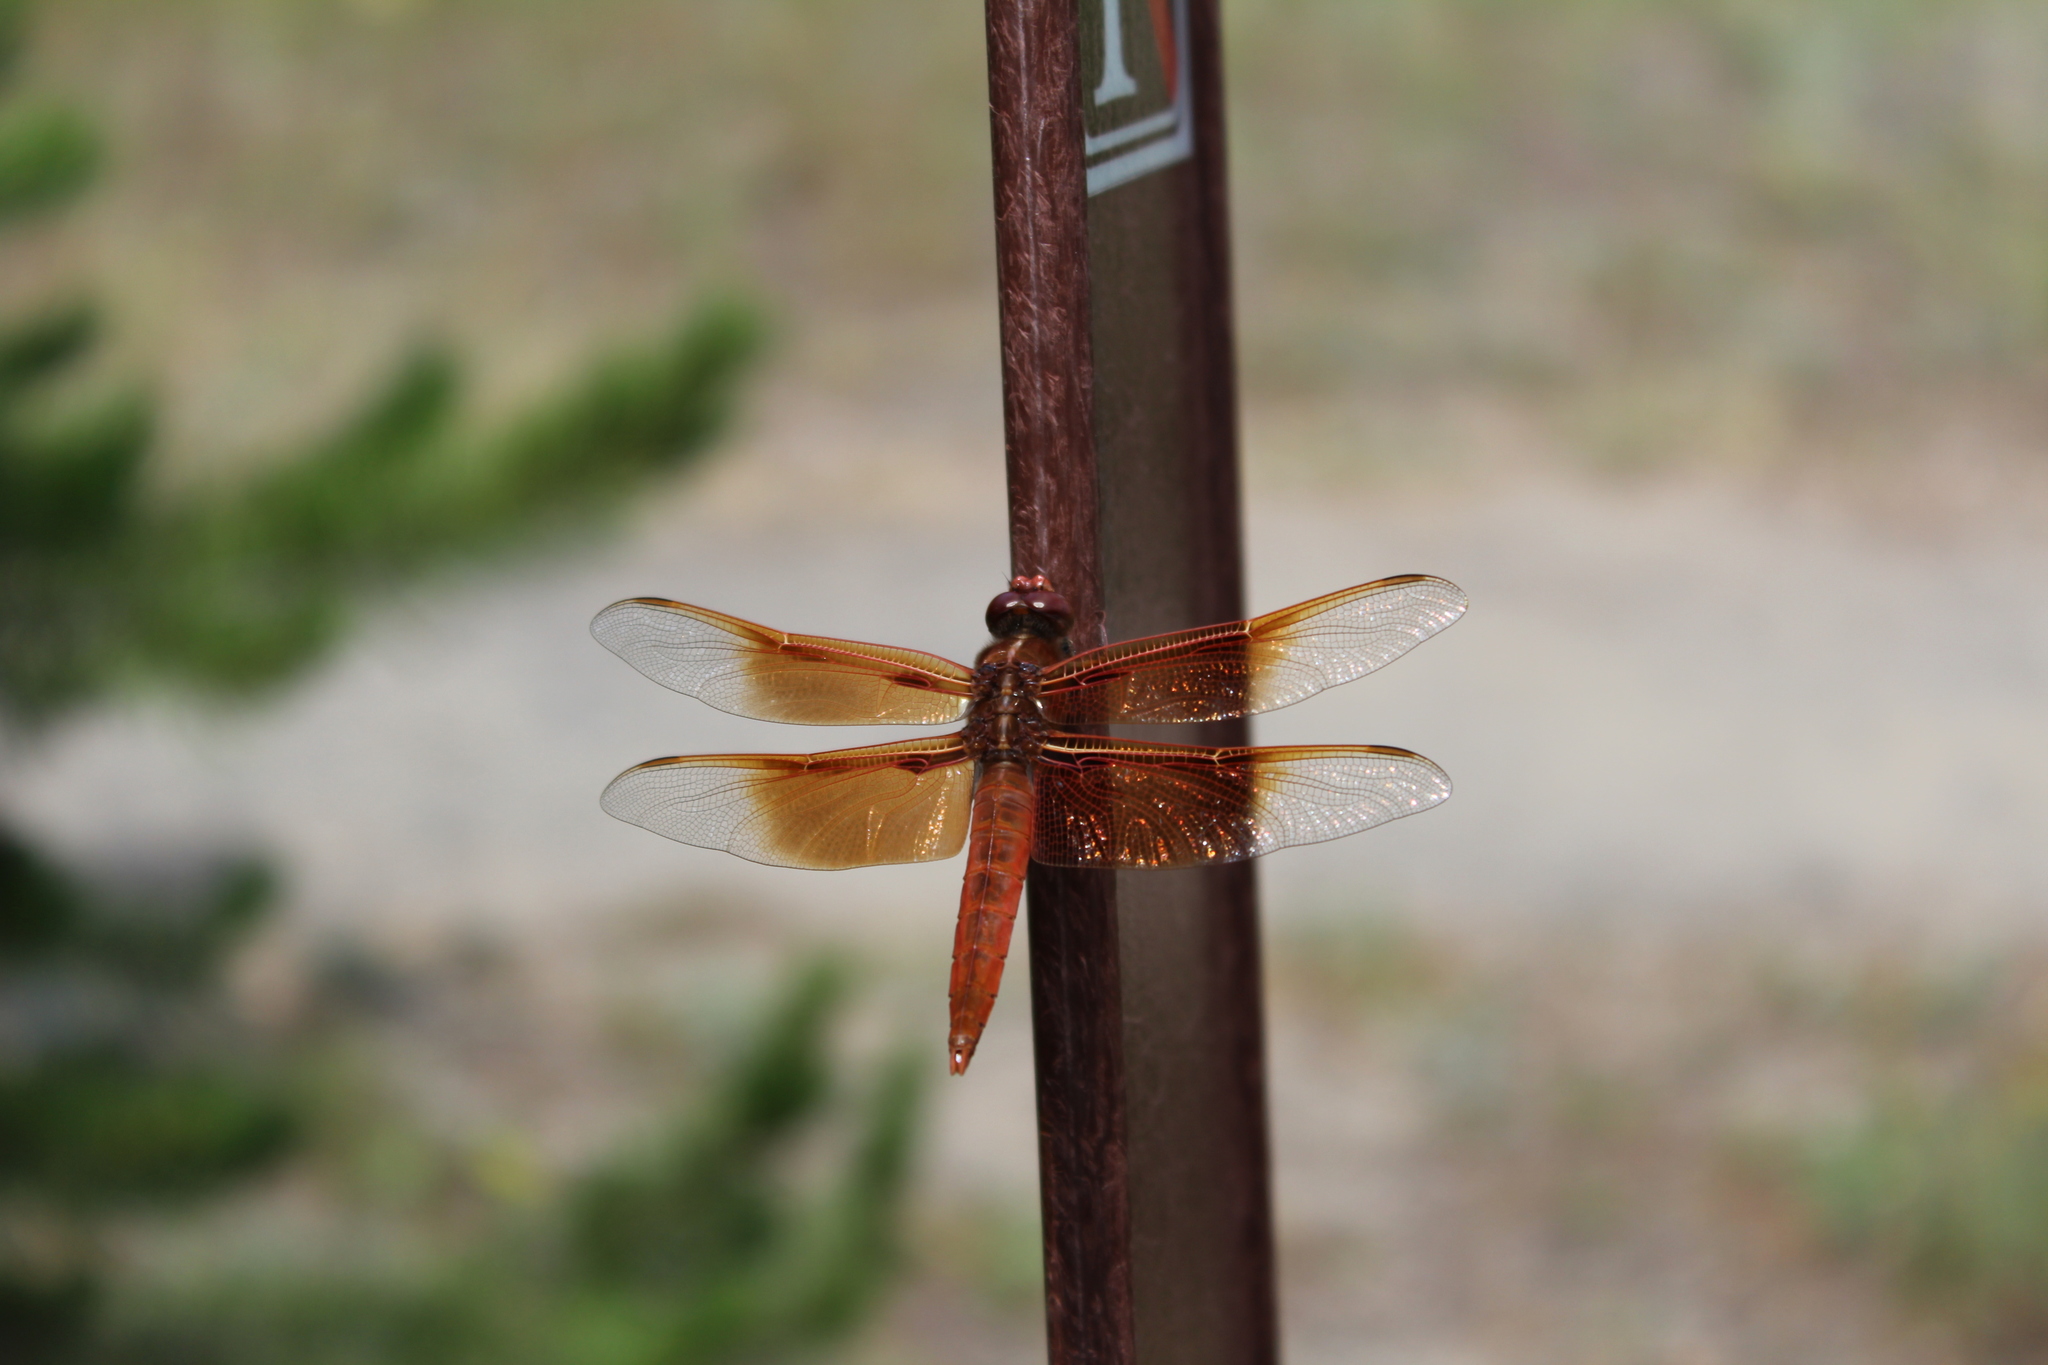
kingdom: Animalia
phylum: Arthropoda
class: Insecta
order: Odonata
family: Libellulidae
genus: Libellula
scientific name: Libellula saturata
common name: Flame skimmer
